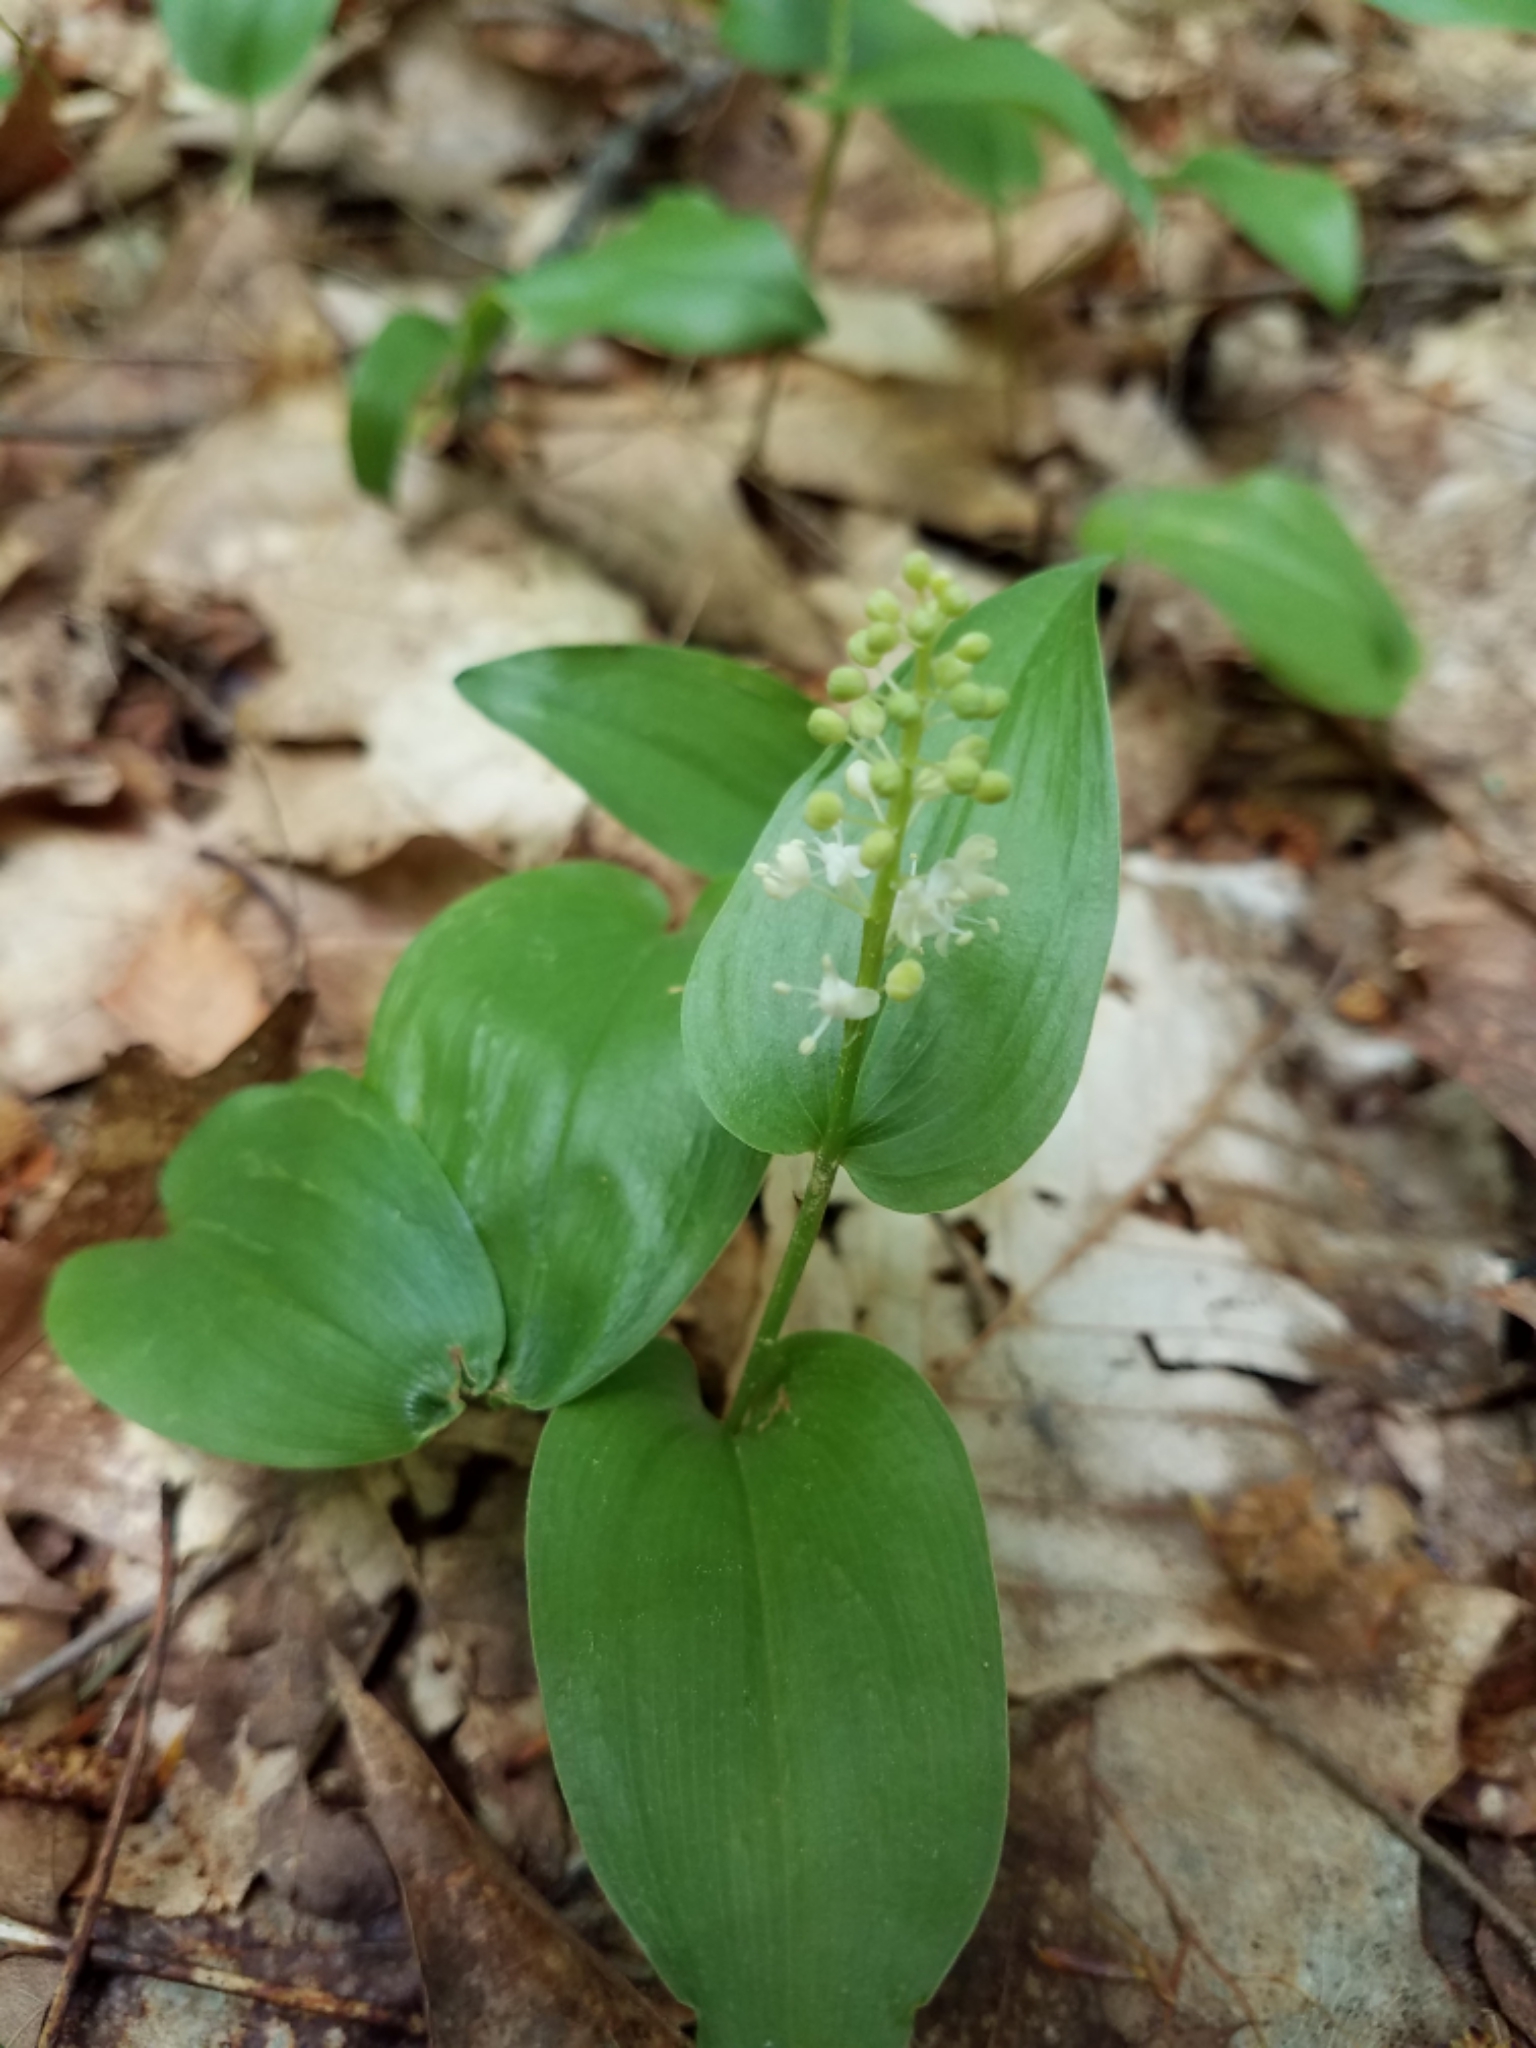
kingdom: Plantae
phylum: Tracheophyta
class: Liliopsida
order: Asparagales
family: Asparagaceae
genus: Maianthemum
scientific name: Maianthemum canadense
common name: False lily-of-the-valley
